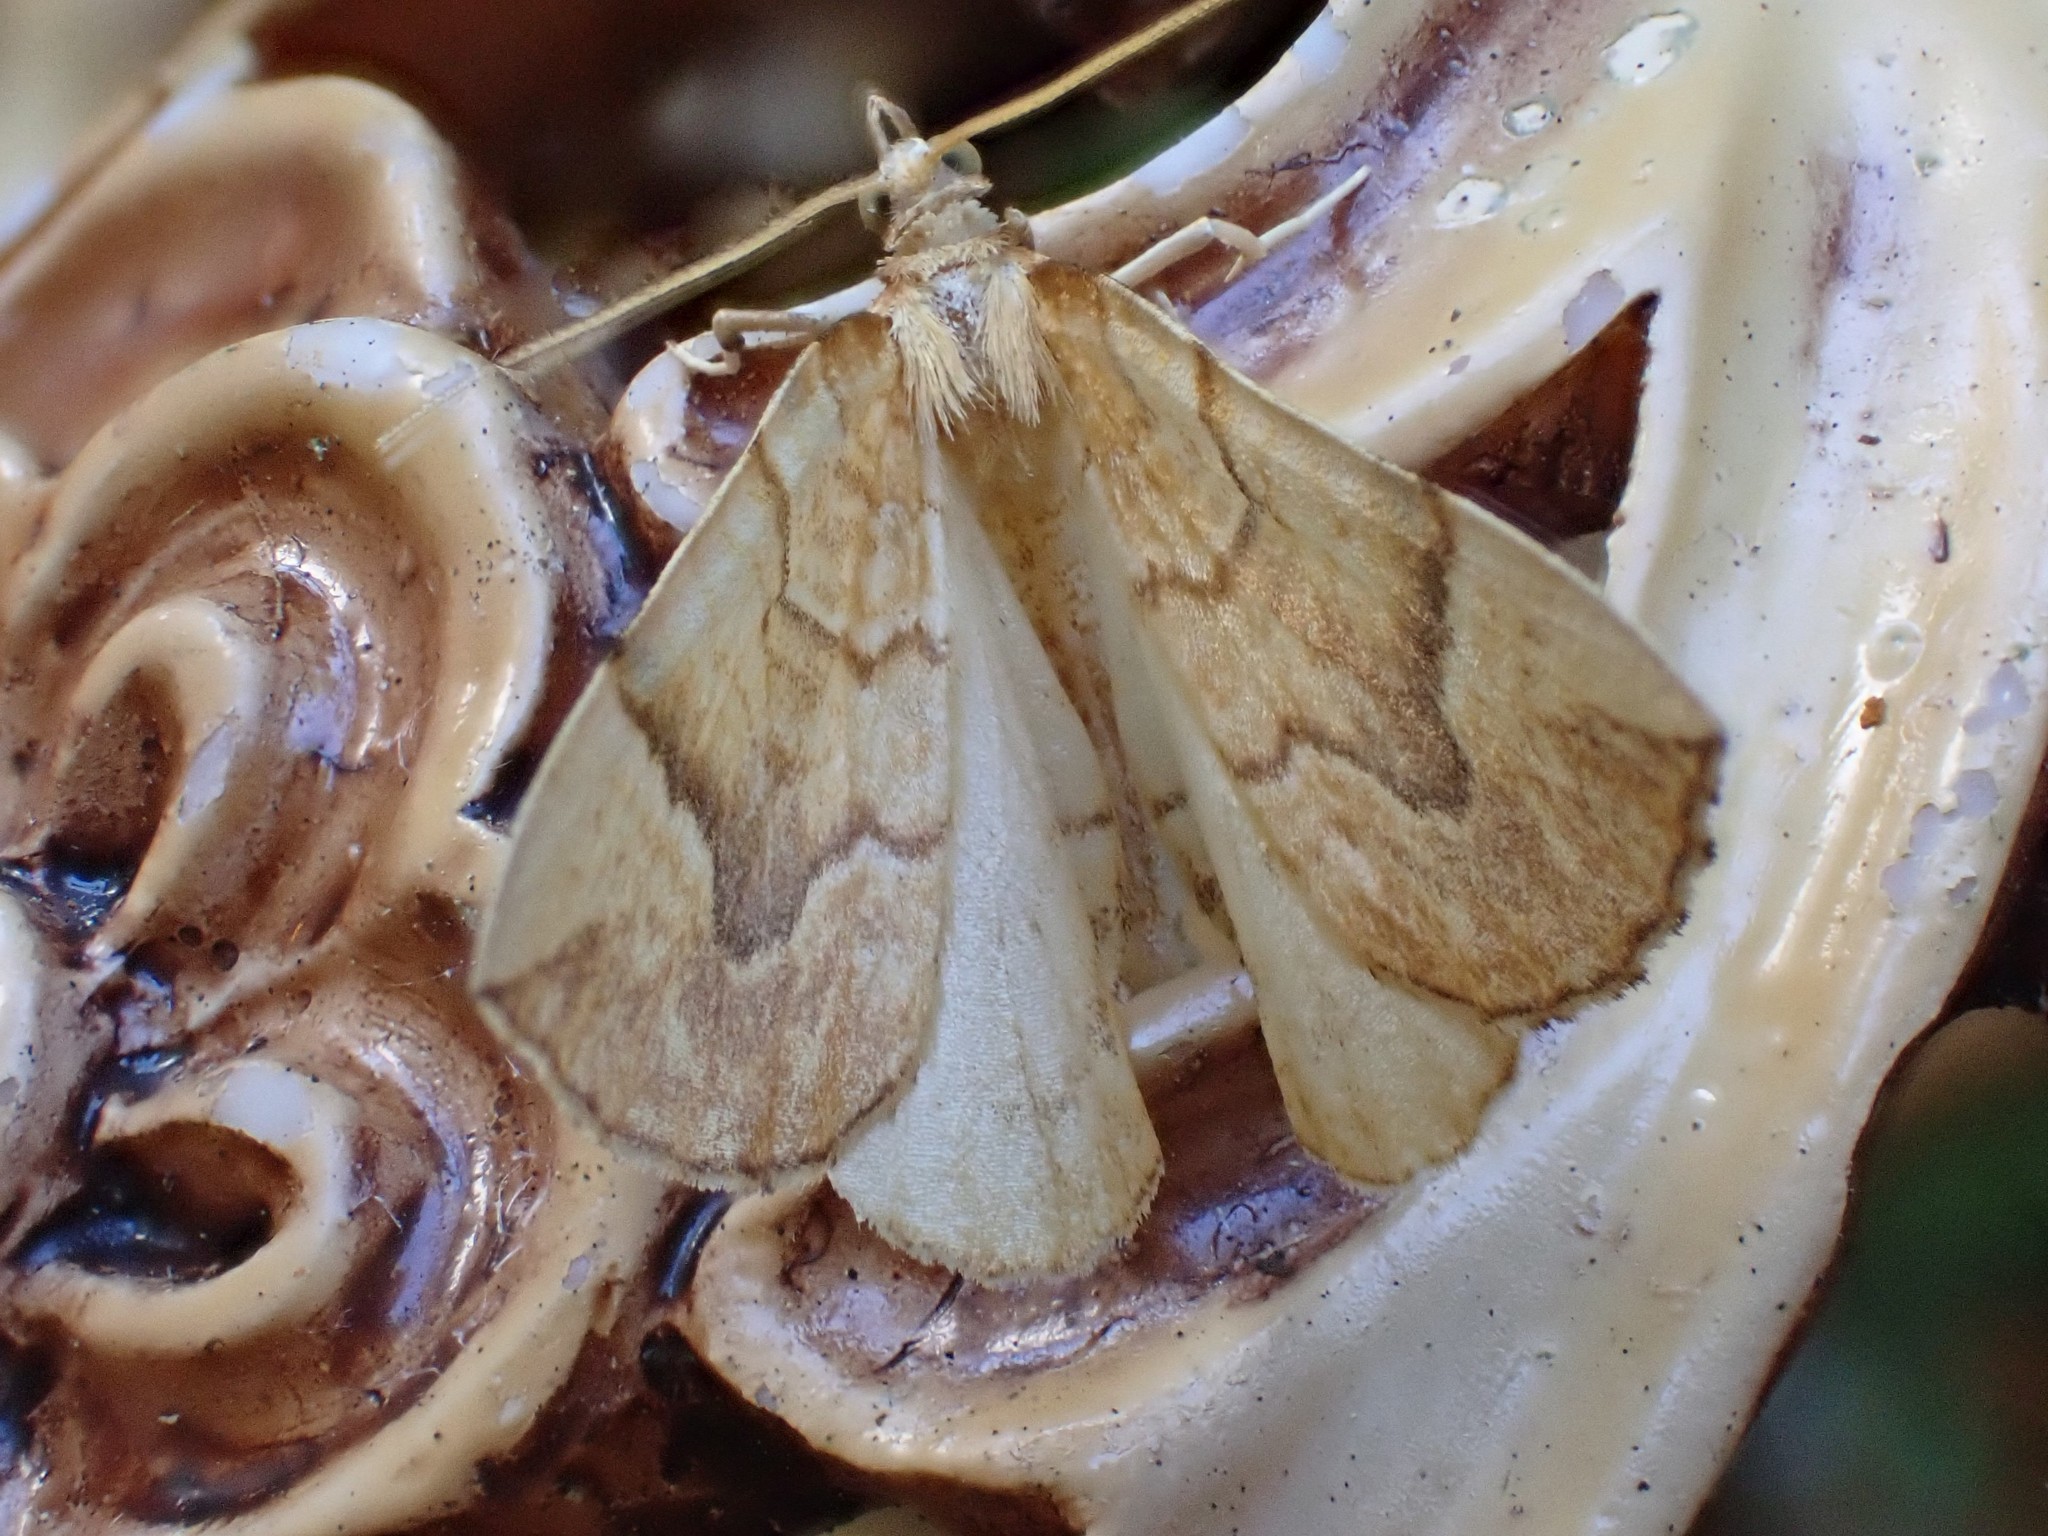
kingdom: Animalia
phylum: Arthropoda
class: Insecta
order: Lepidoptera
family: Geometridae
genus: Eulithis
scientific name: Eulithis mellinata
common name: Spinach
